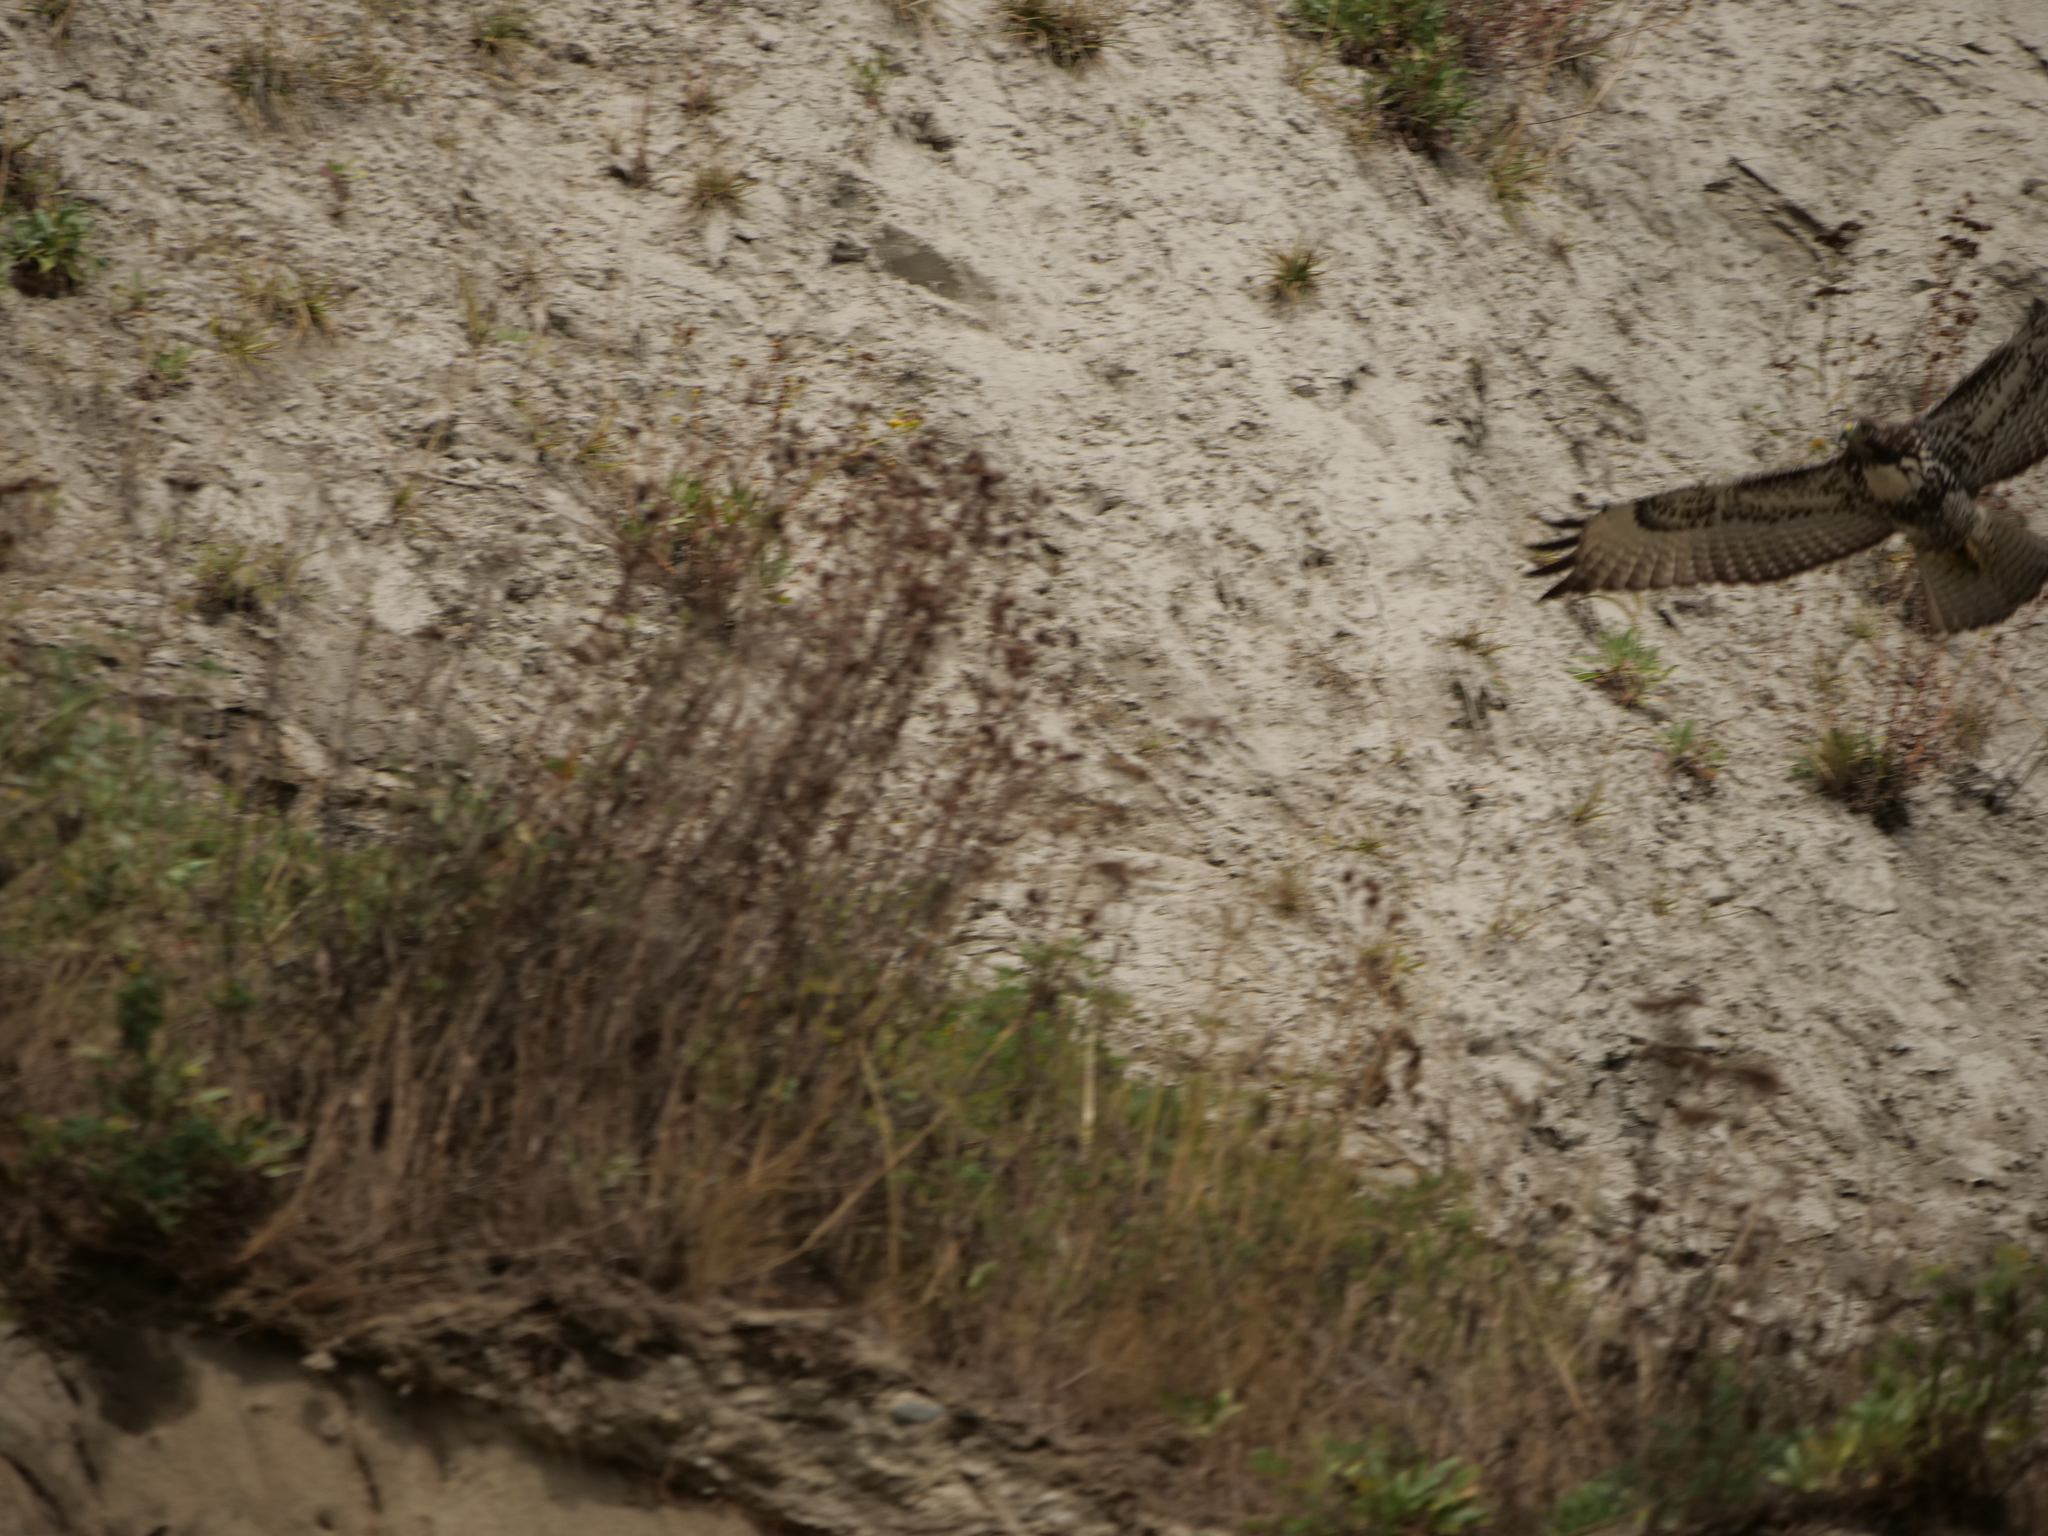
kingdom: Animalia
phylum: Chordata
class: Aves
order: Accipitriformes
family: Accipitridae
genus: Buteo
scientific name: Buteo jamaicensis
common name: Red-tailed hawk
